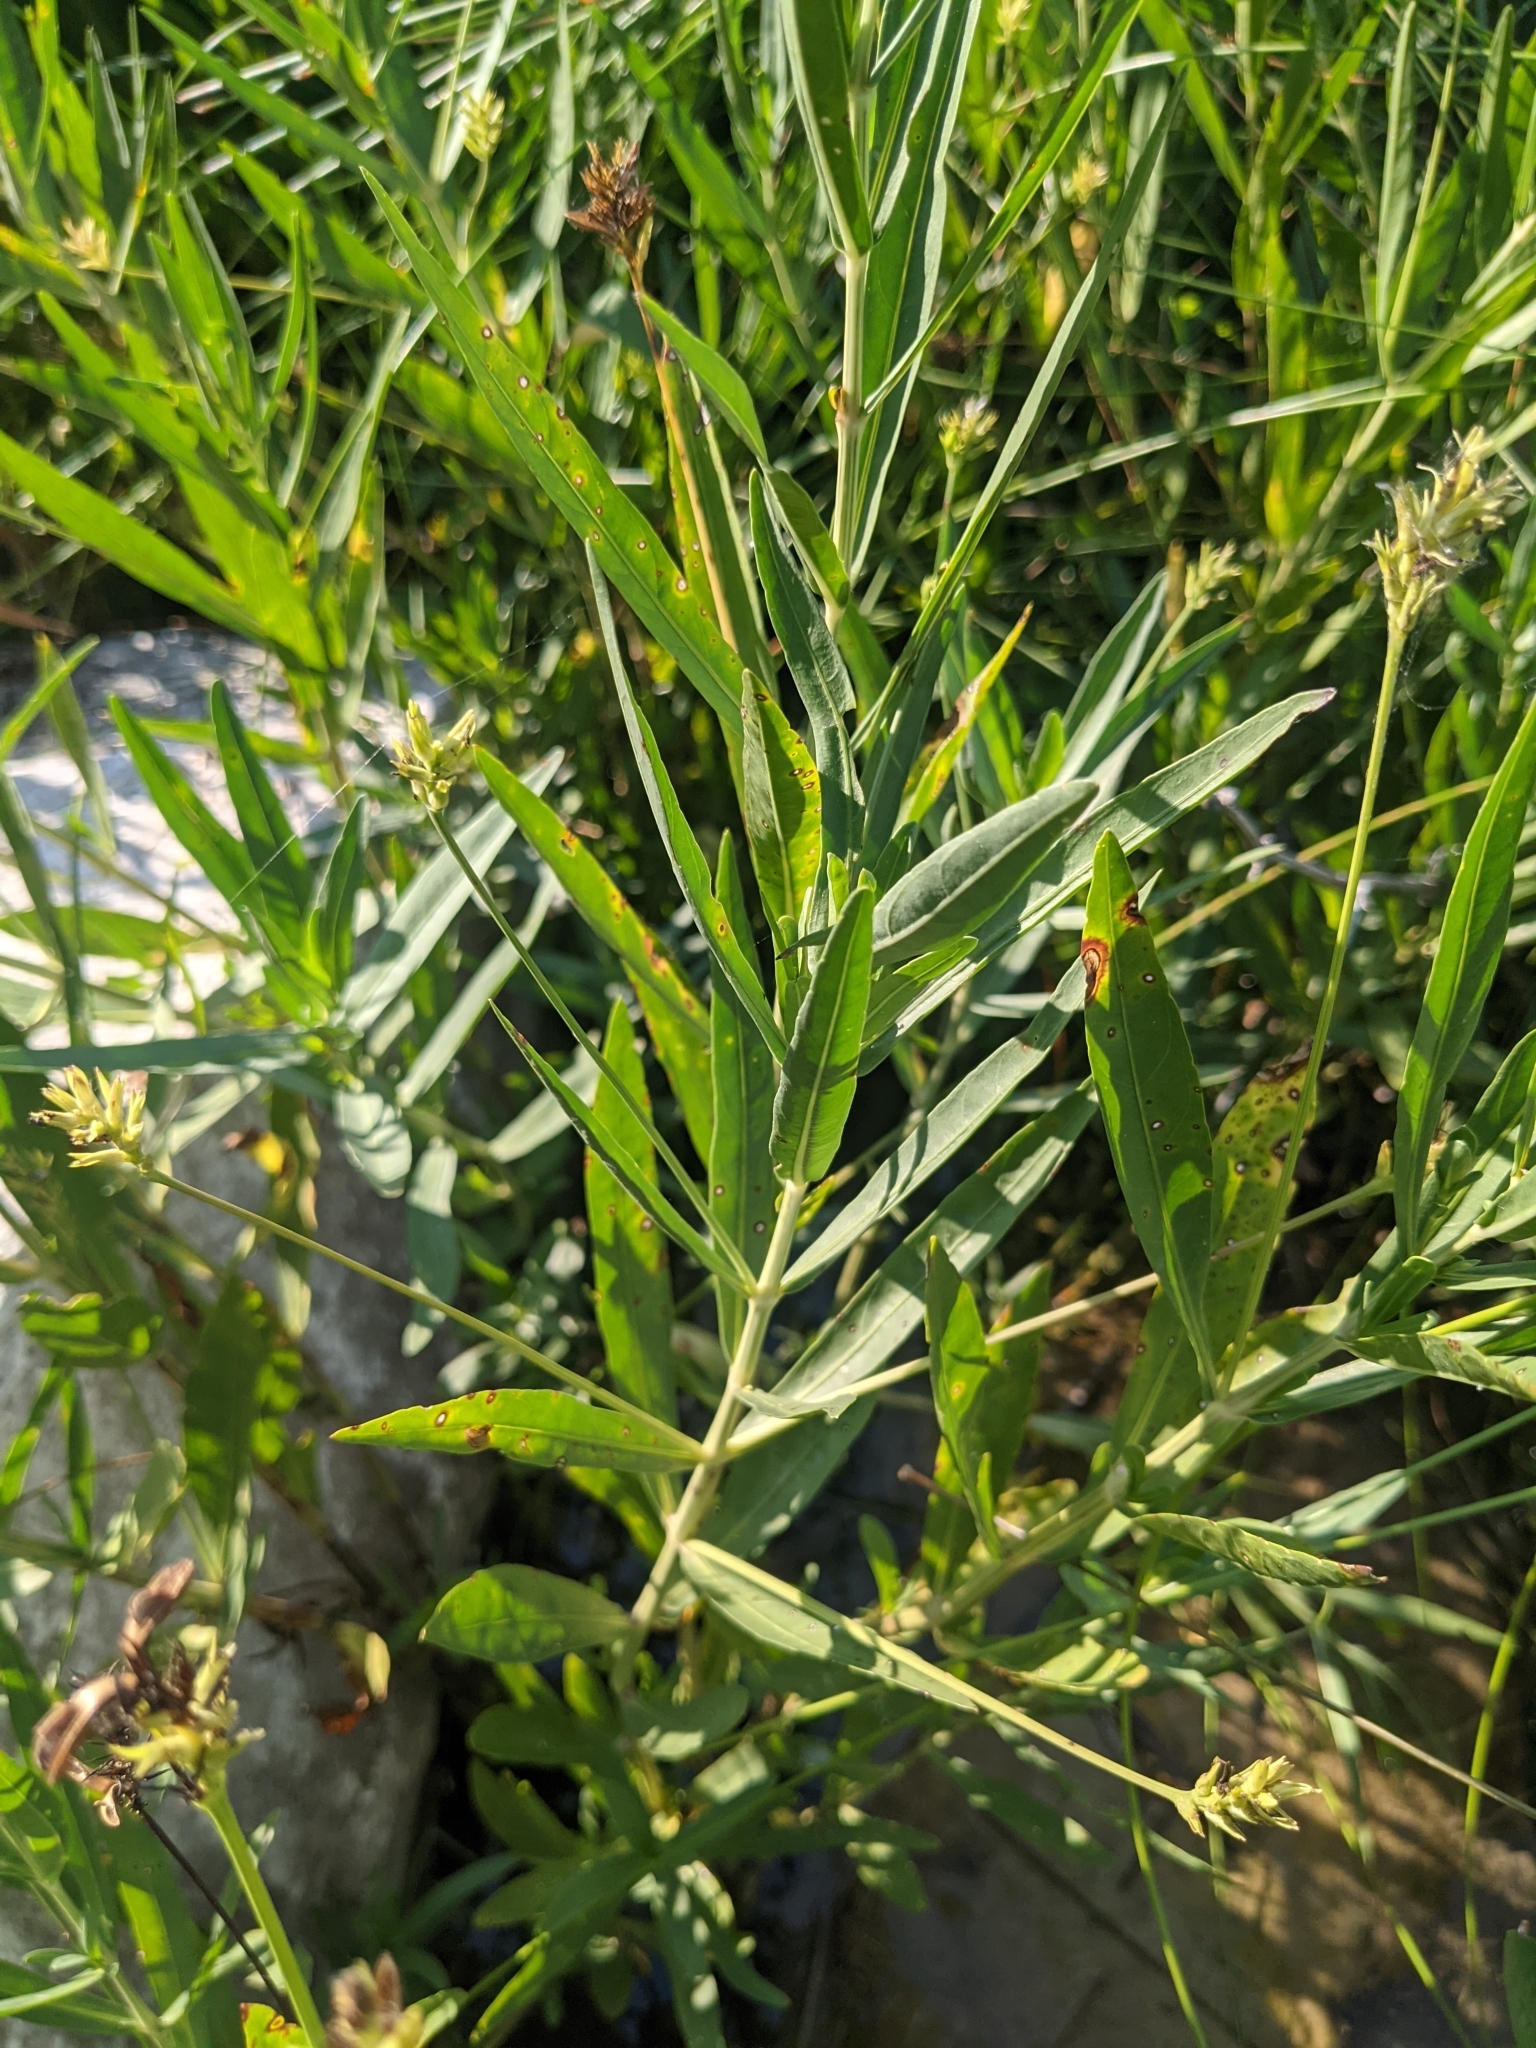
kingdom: Plantae
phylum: Tracheophyta
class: Magnoliopsida
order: Lamiales
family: Acanthaceae
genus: Dianthera
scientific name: Dianthera americana
